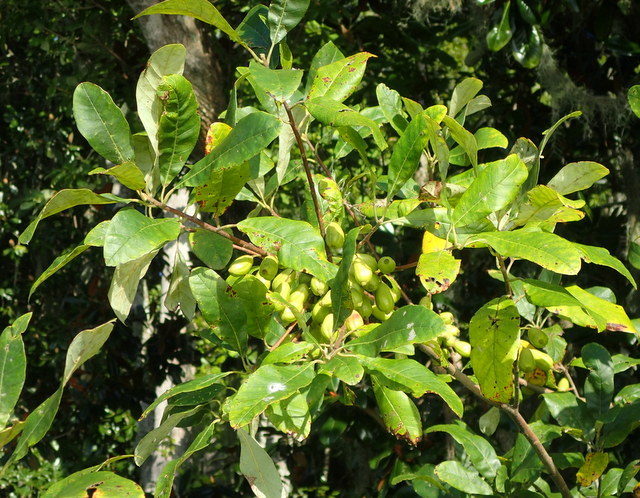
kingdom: Plantae
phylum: Tracheophyta
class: Magnoliopsida
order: Cornales
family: Nyssaceae
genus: Nyssa
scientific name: Nyssa ogeche
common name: Ogeechee tupelo
